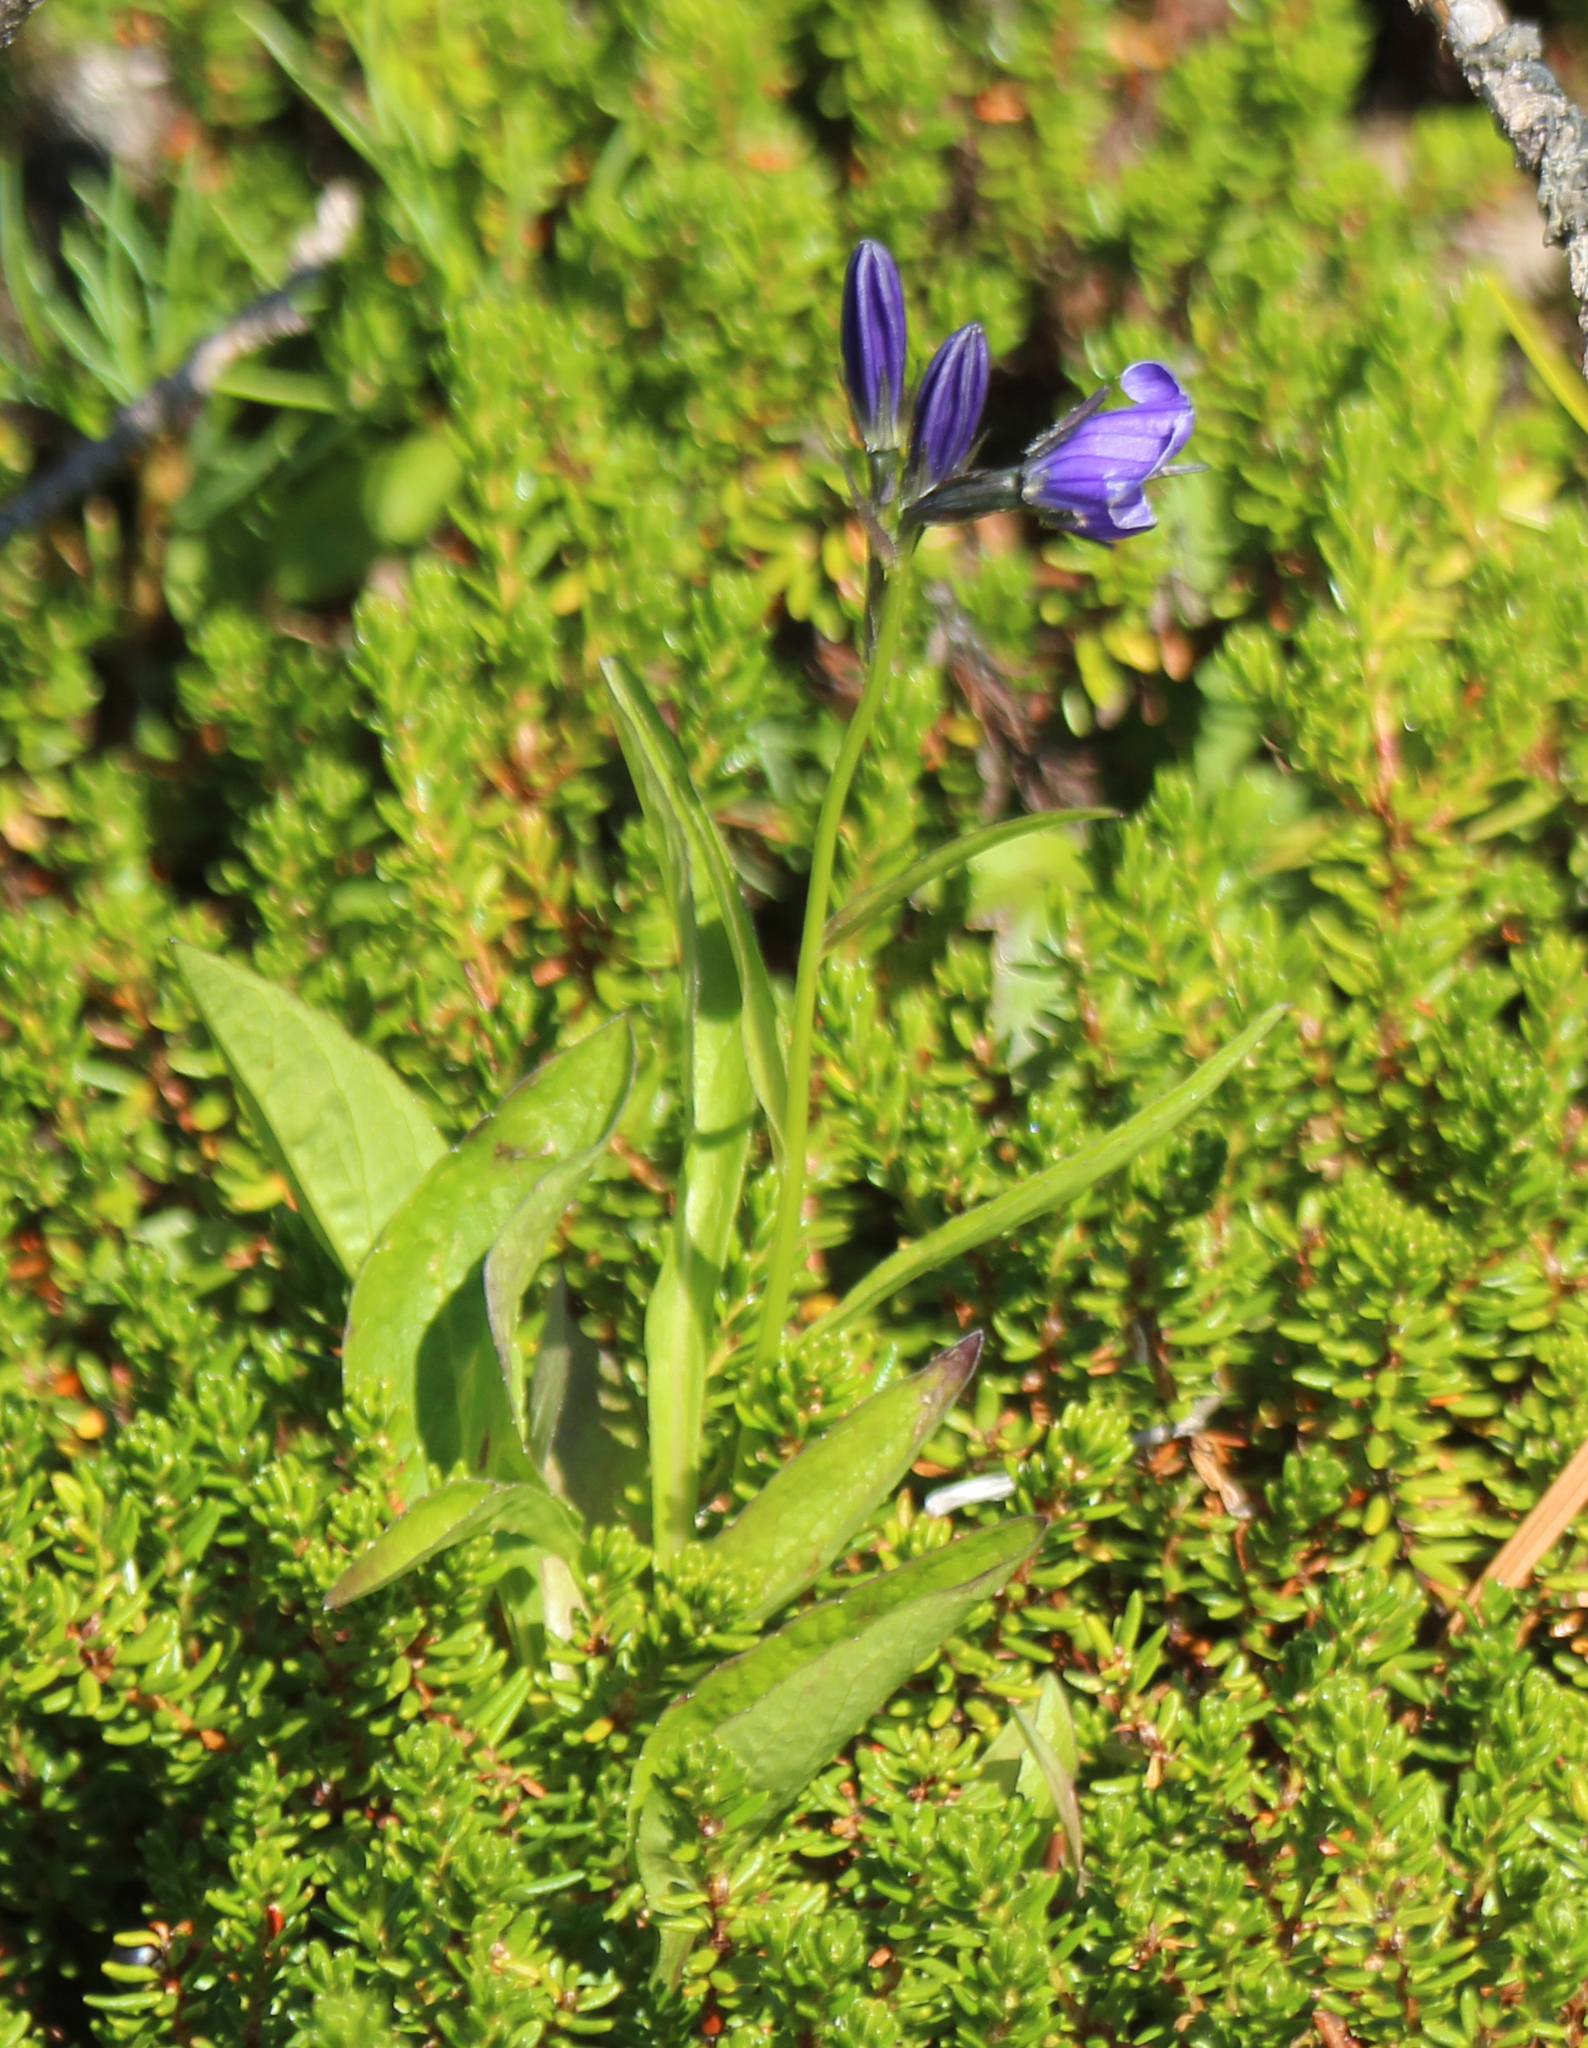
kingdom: Plantae
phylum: Tracheophyta
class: Magnoliopsida
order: Asterales
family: Campanulaceae
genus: Campanula
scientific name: Campanula stevenii
